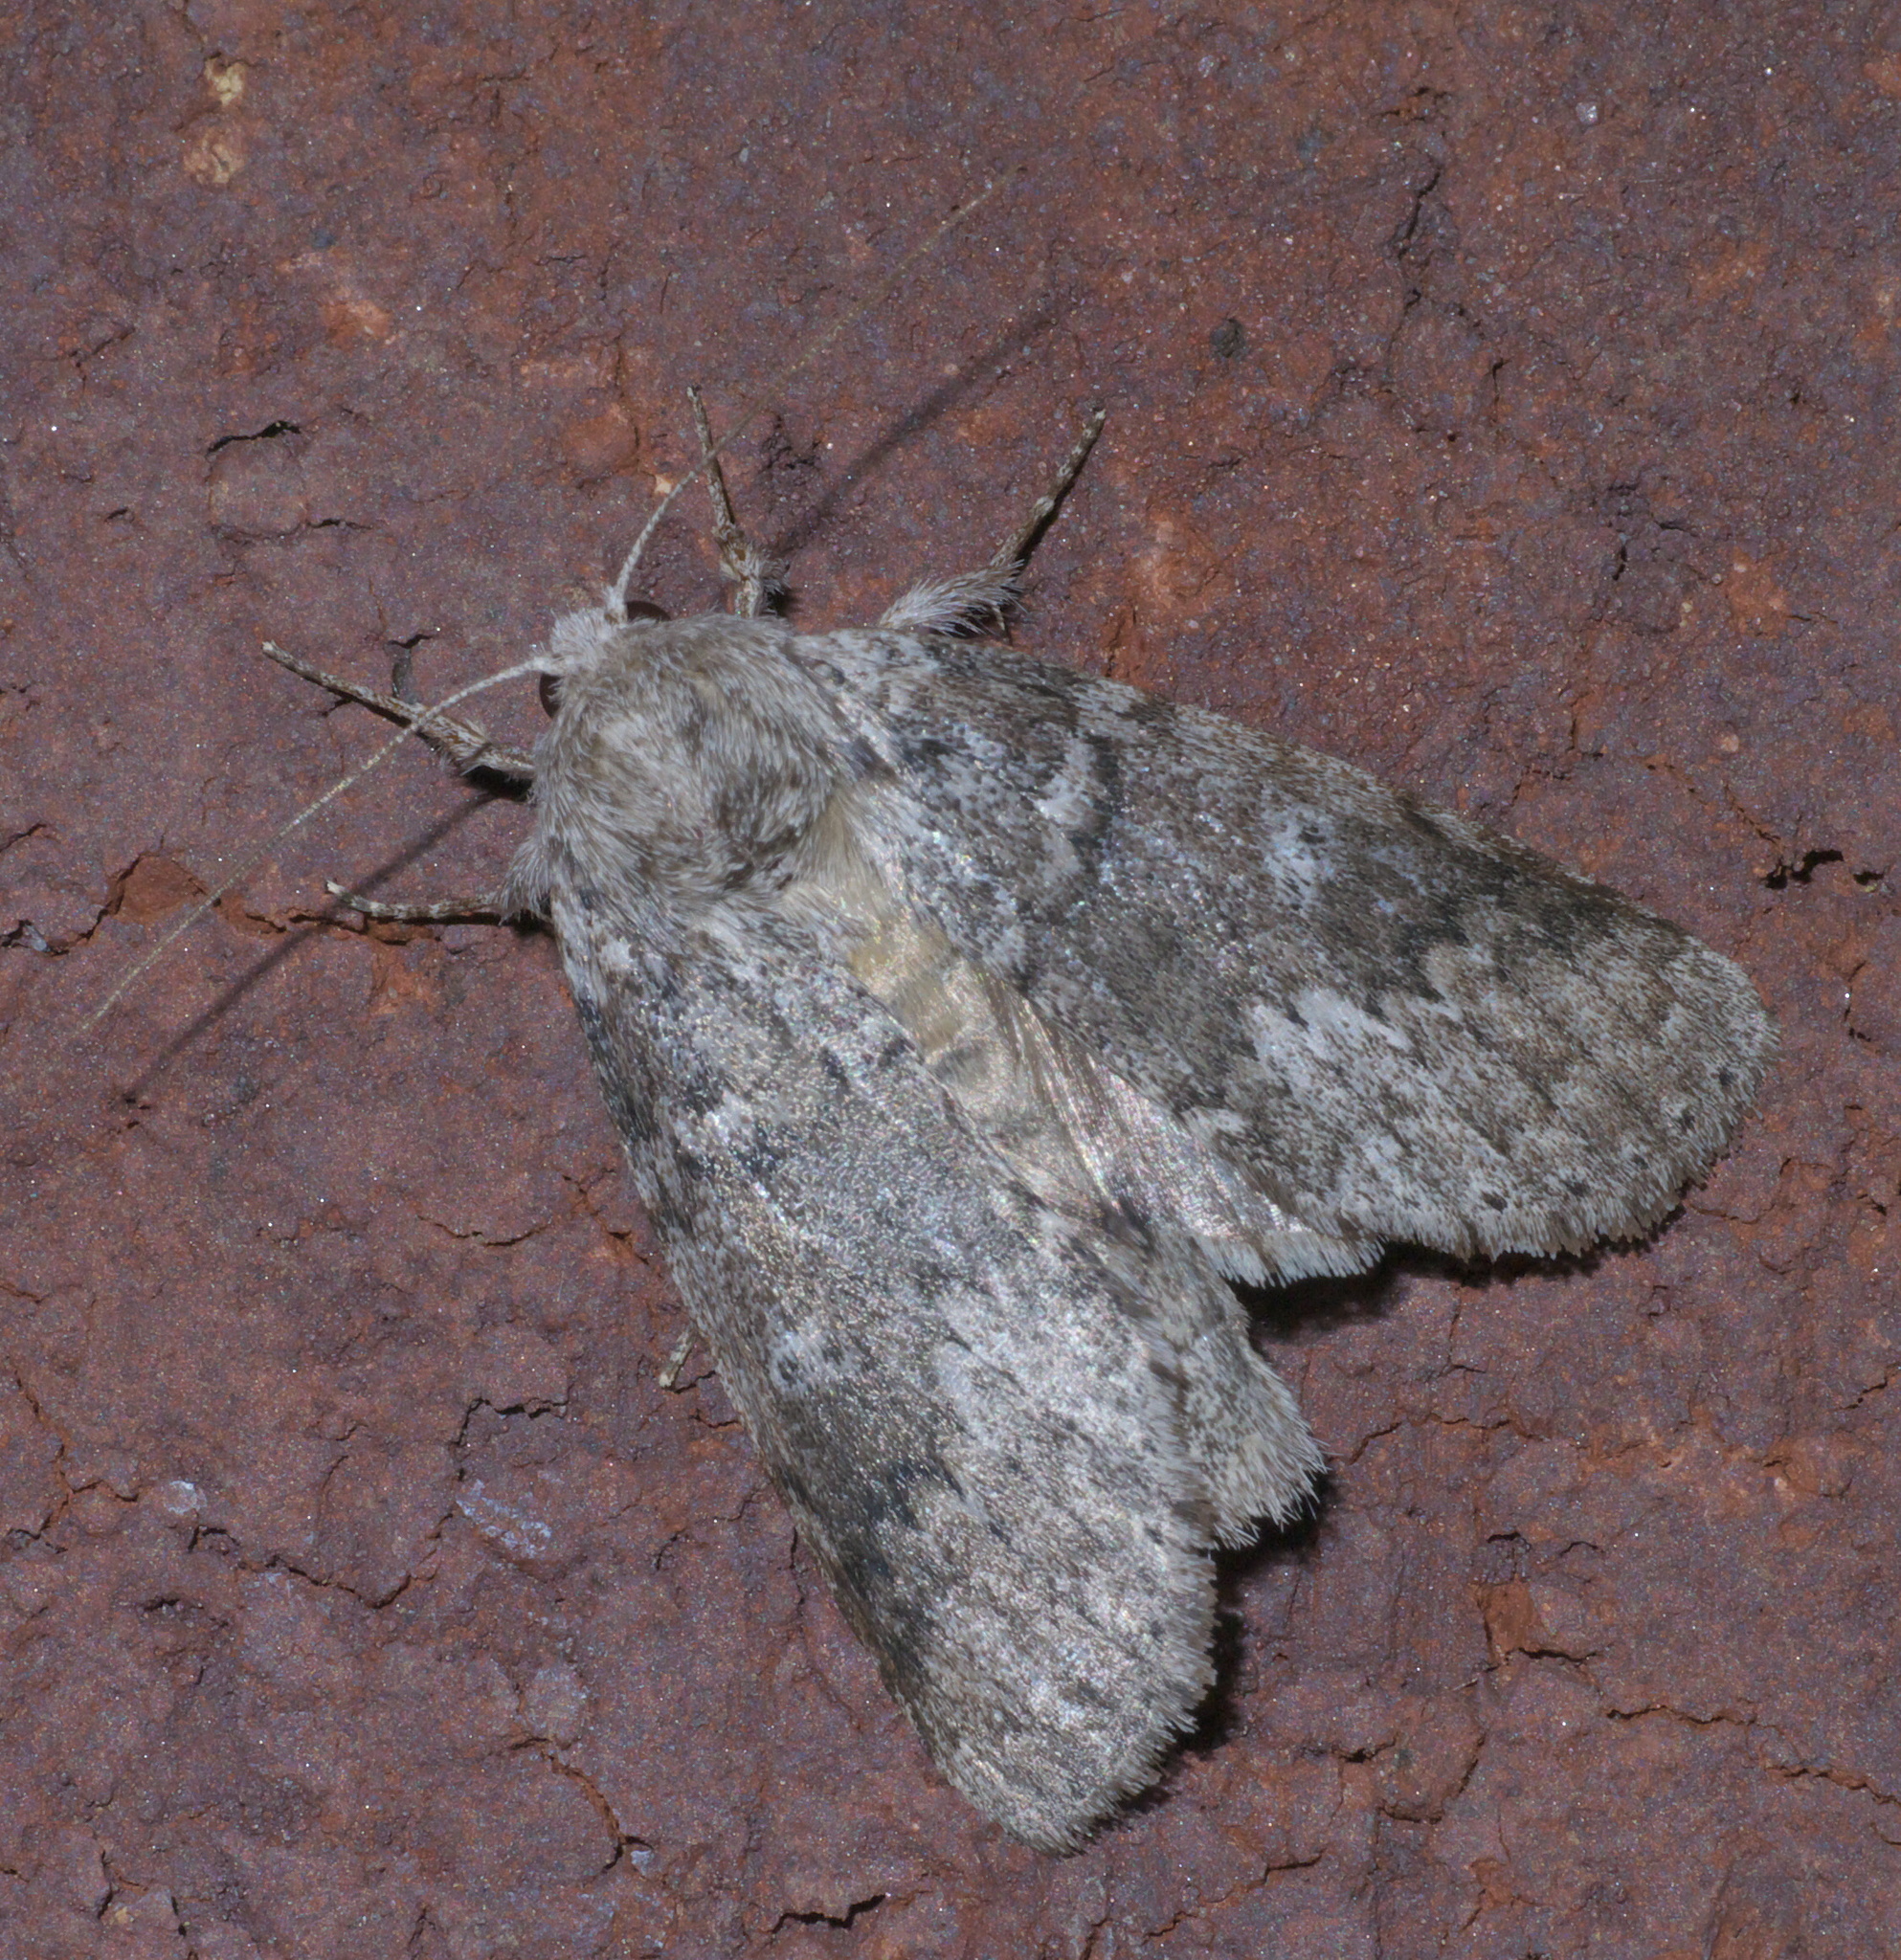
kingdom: Animalia
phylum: Arthropoda
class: Insecta
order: Lepidoptera
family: Notodontidae
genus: Lochmaeus
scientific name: Lochmaeus manteo
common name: Variable oakleaf caterpillar moth
